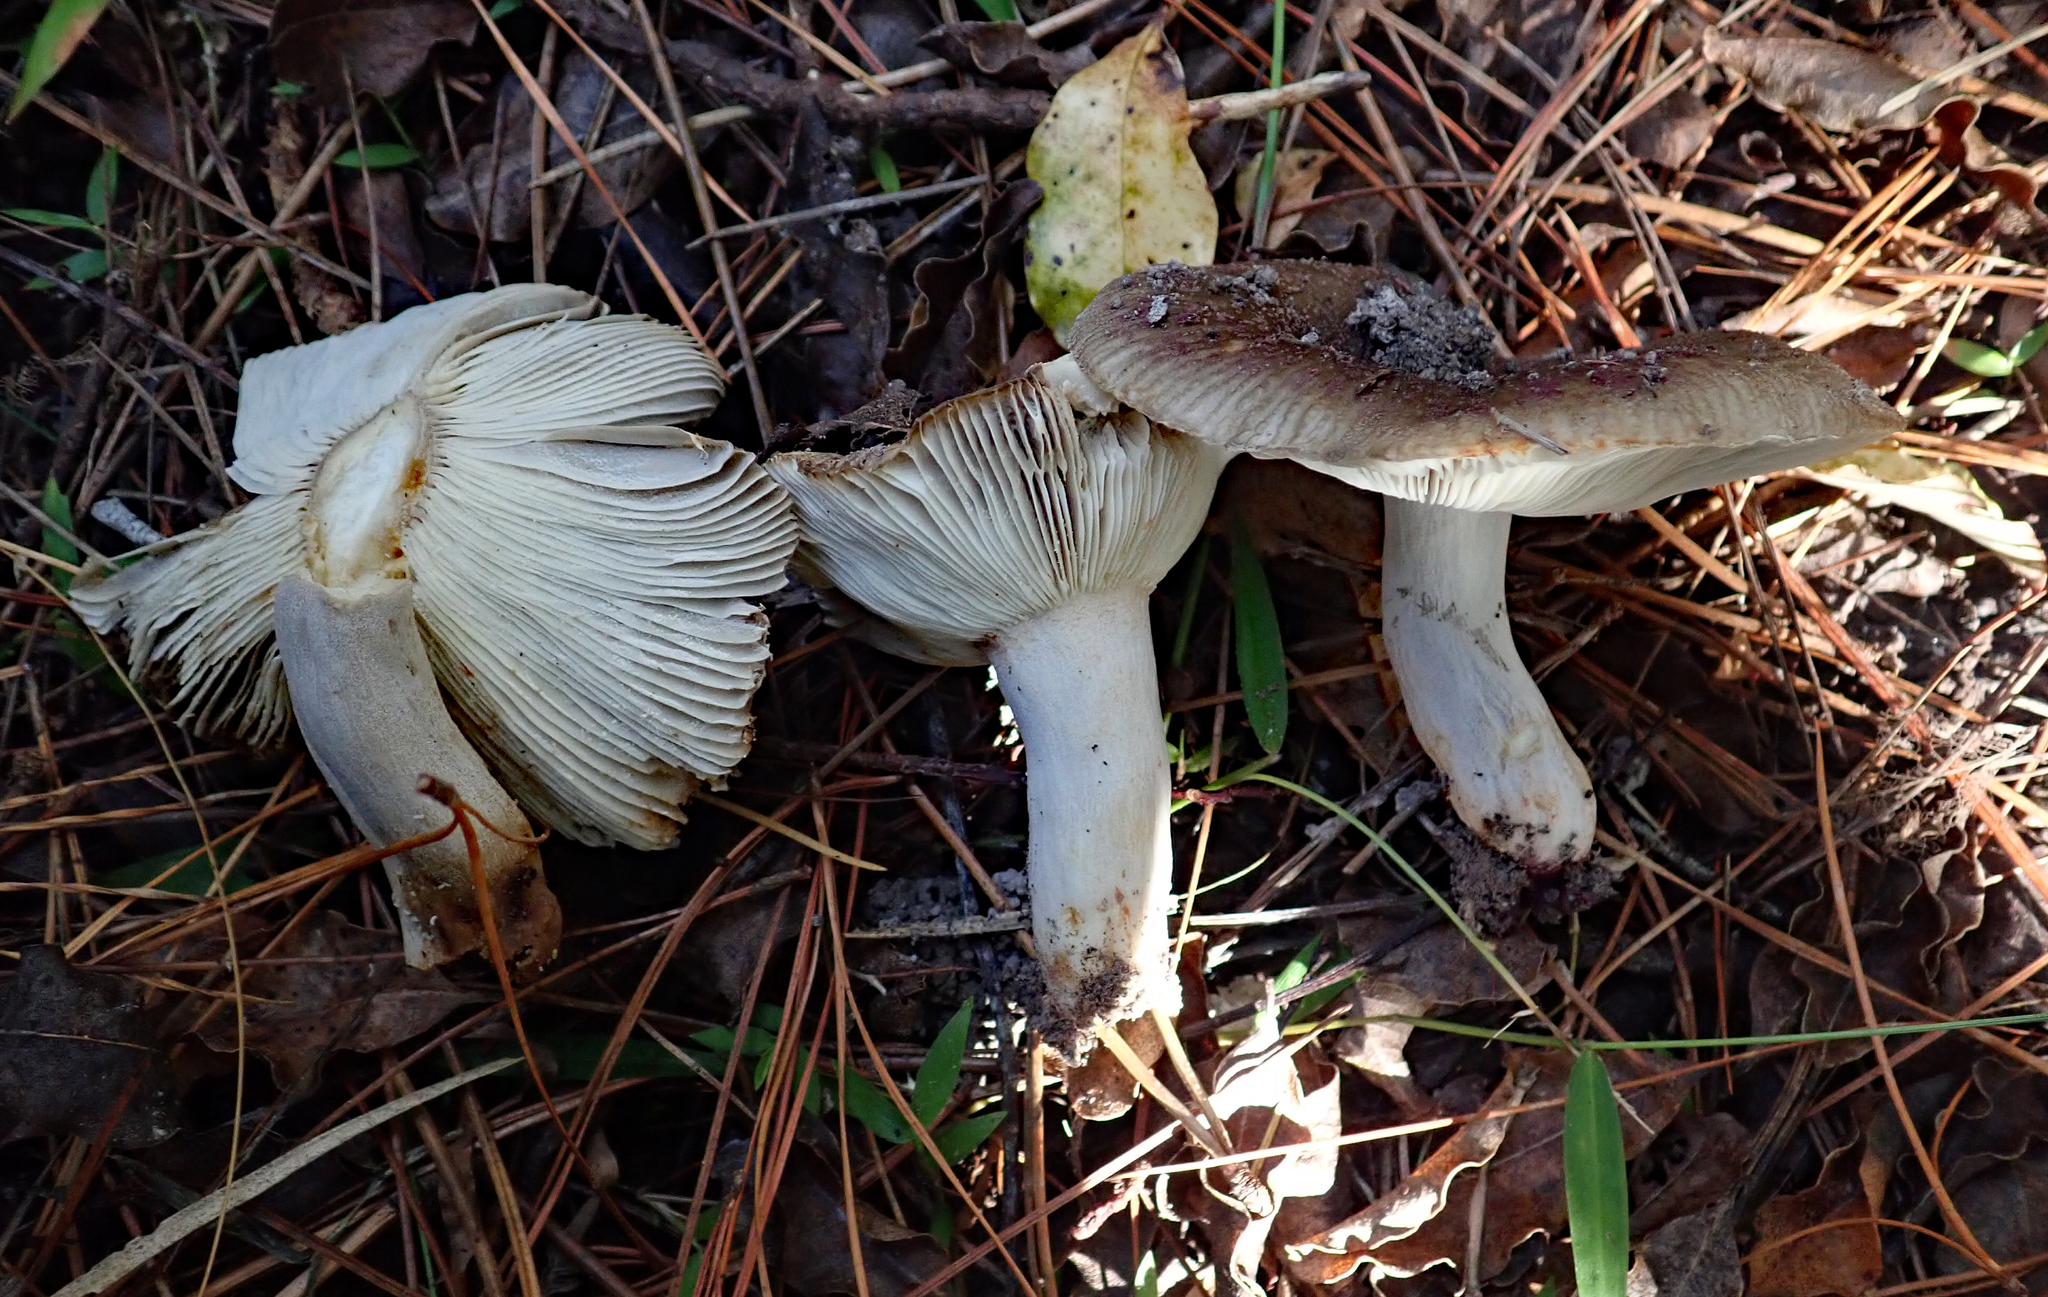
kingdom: Fungi
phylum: Basidiomycota
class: Agaricomycetes
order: Russulales
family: Russulaceae
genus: Russula
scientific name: Russula vinaceocuticulata
